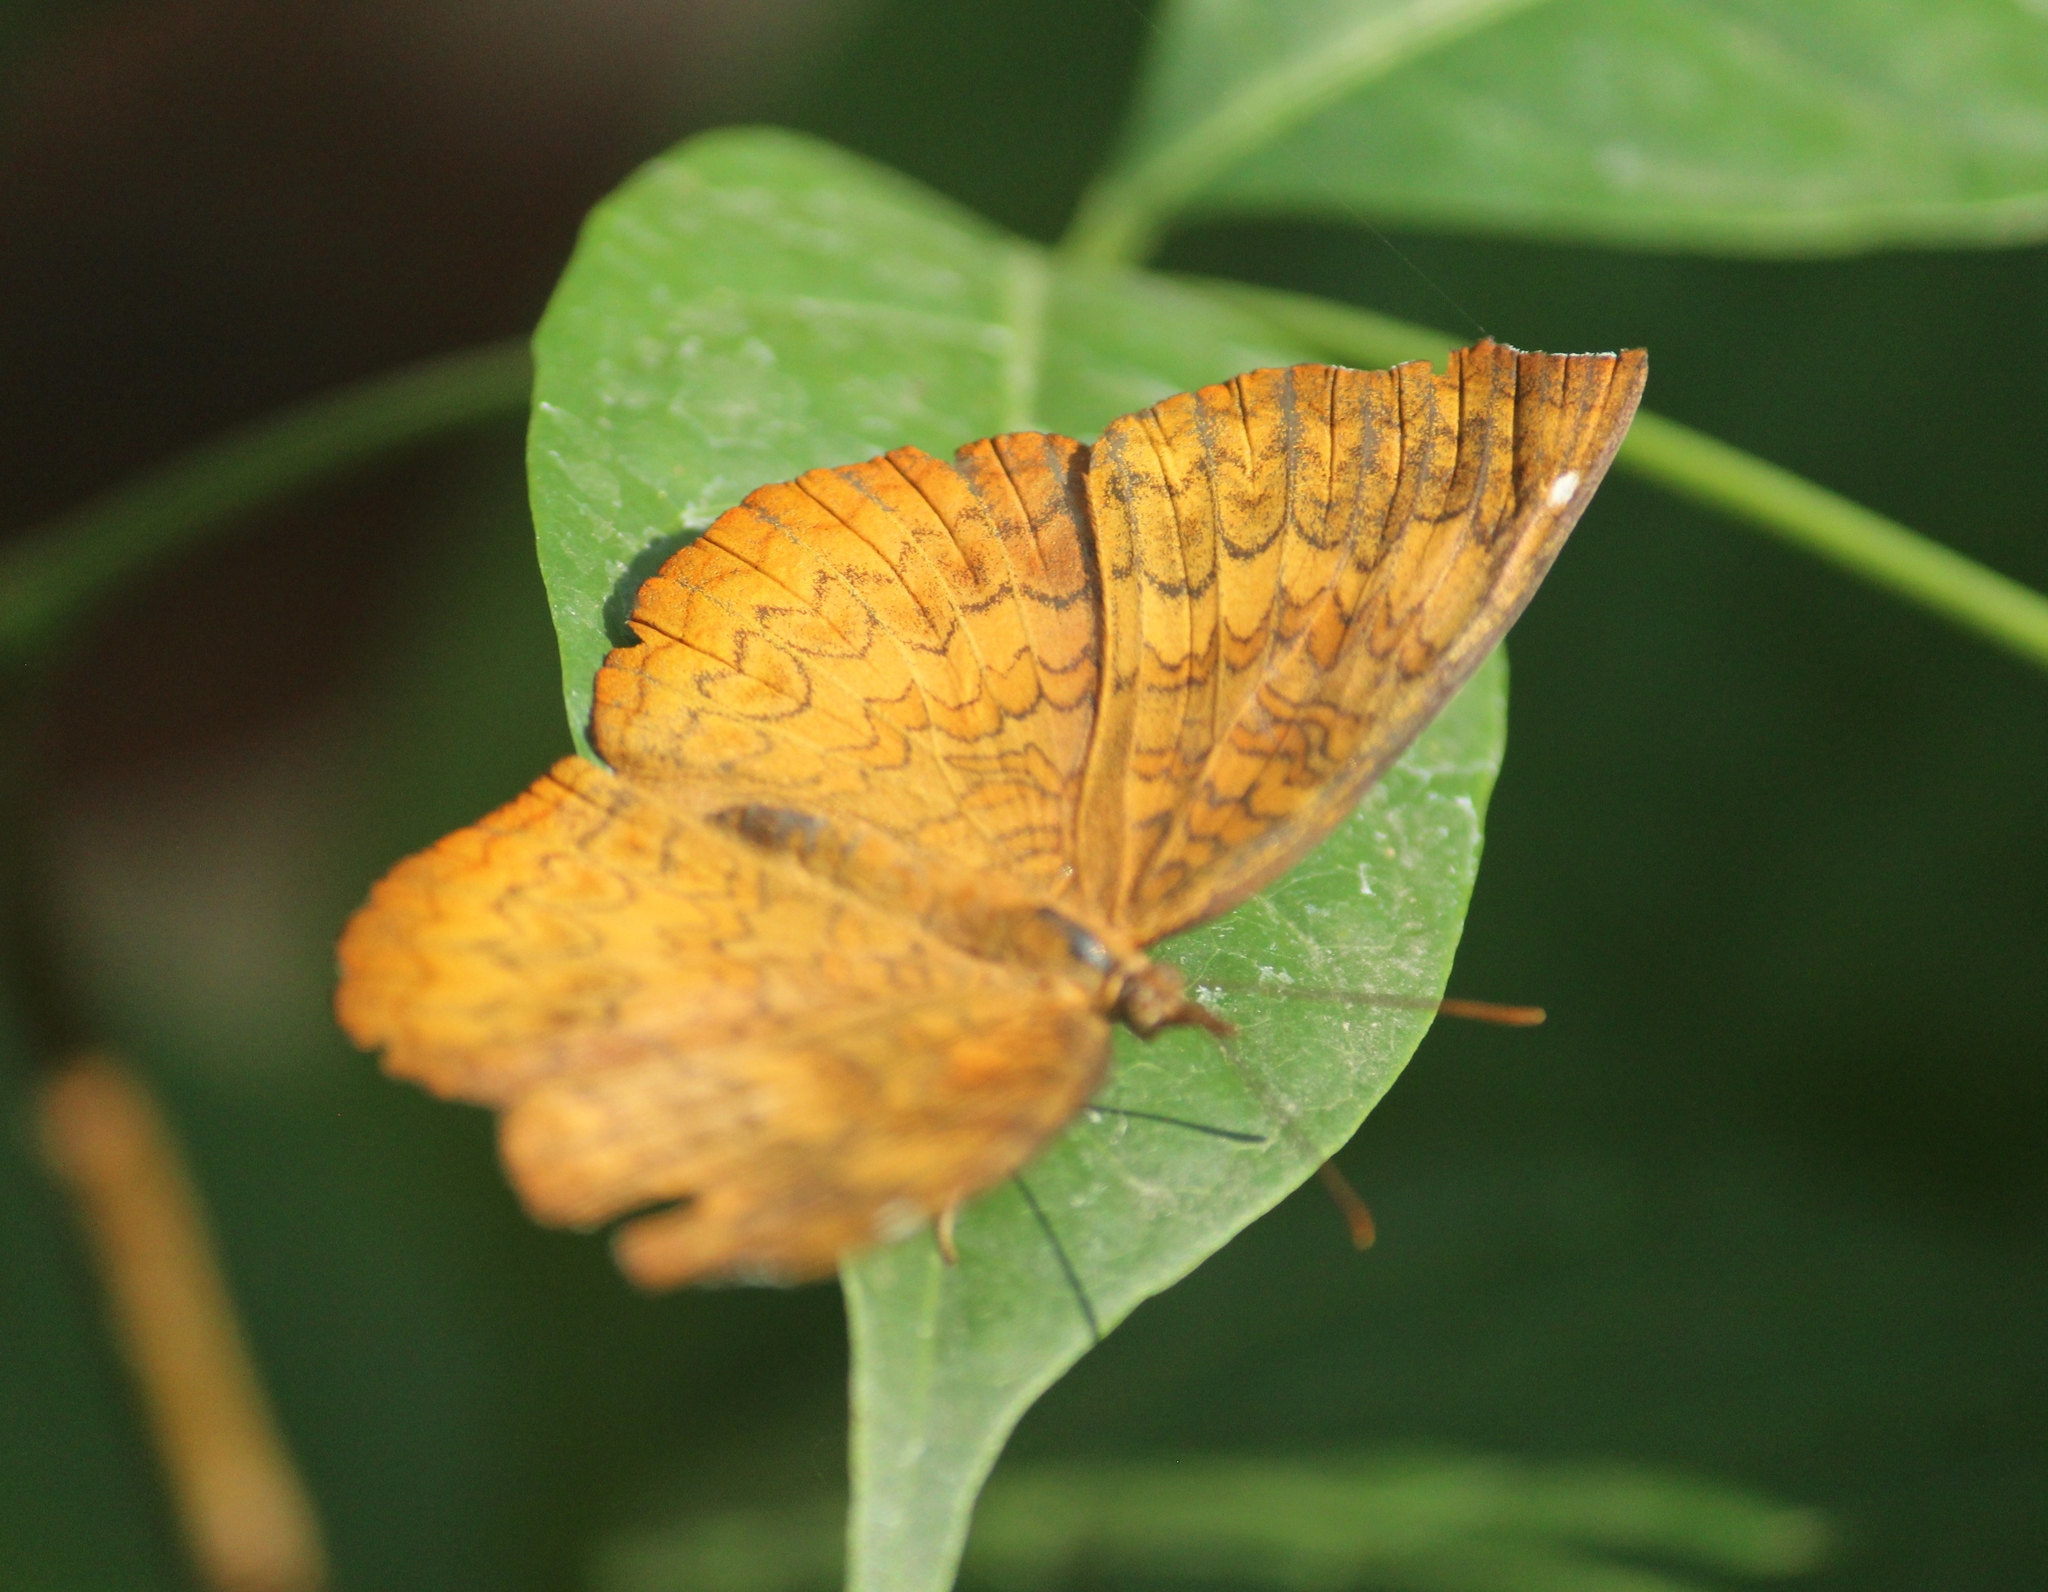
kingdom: Animalia
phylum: Arthropoda
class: Insecta
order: Lepidoptera
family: Nymphalidae
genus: Ariadne
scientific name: Ariadne merione
